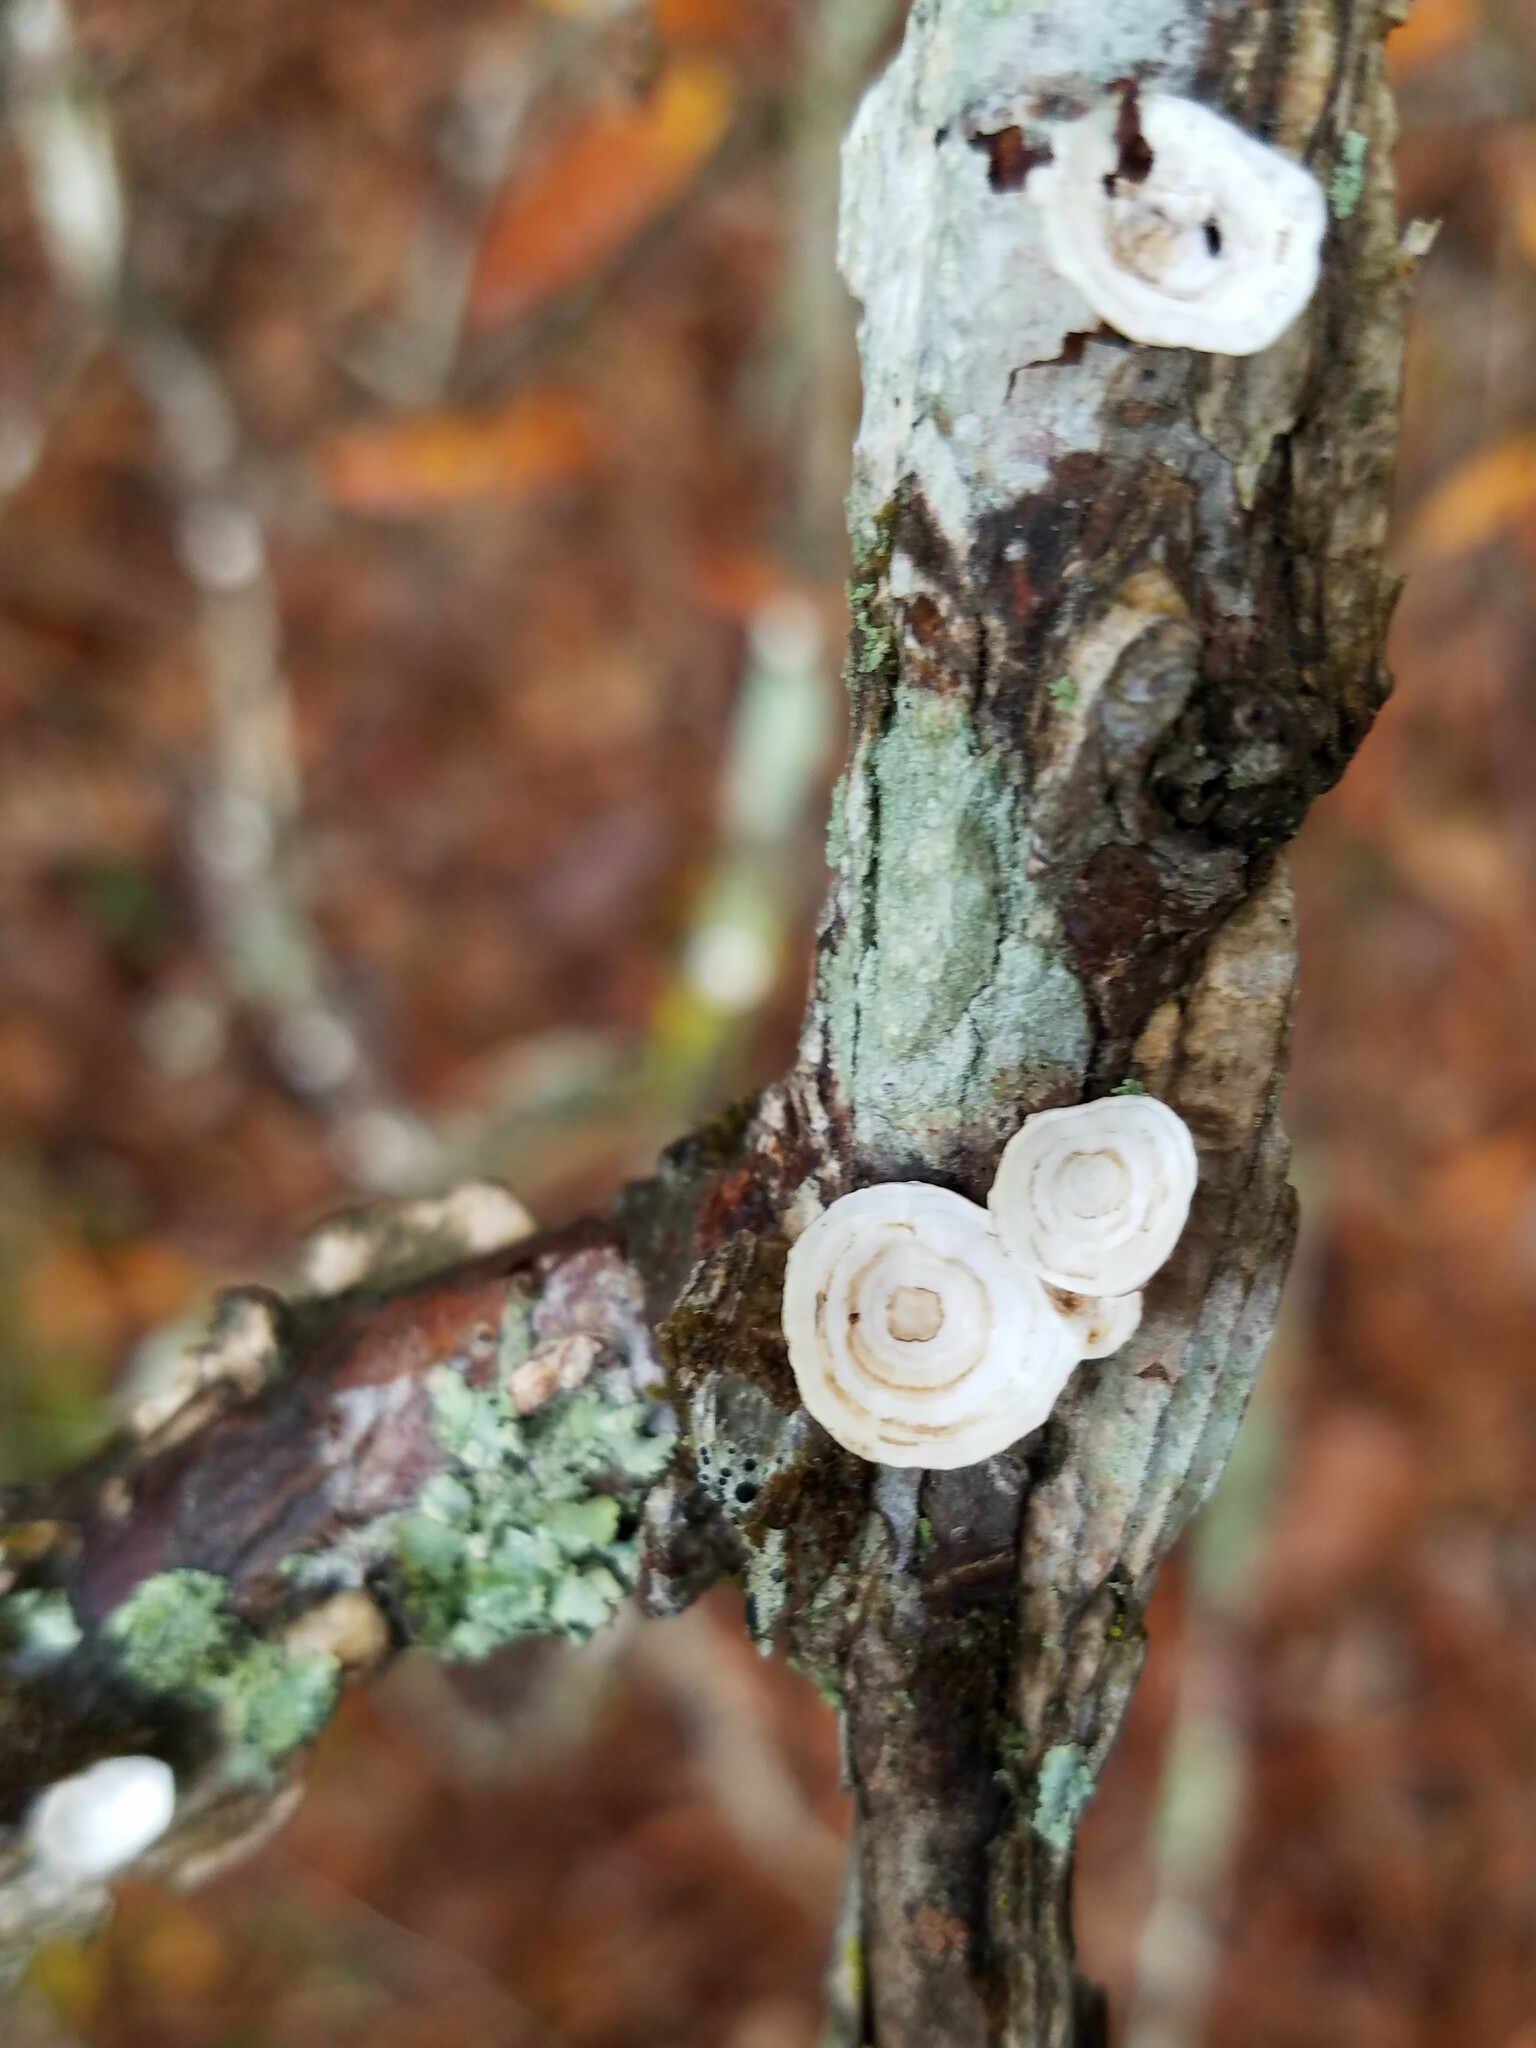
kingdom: Fungi
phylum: Basidiomycota
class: Agaricomycetes
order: Polyporales
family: Polyporaceae
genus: Poronidulus
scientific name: Poronidulus conchifer
